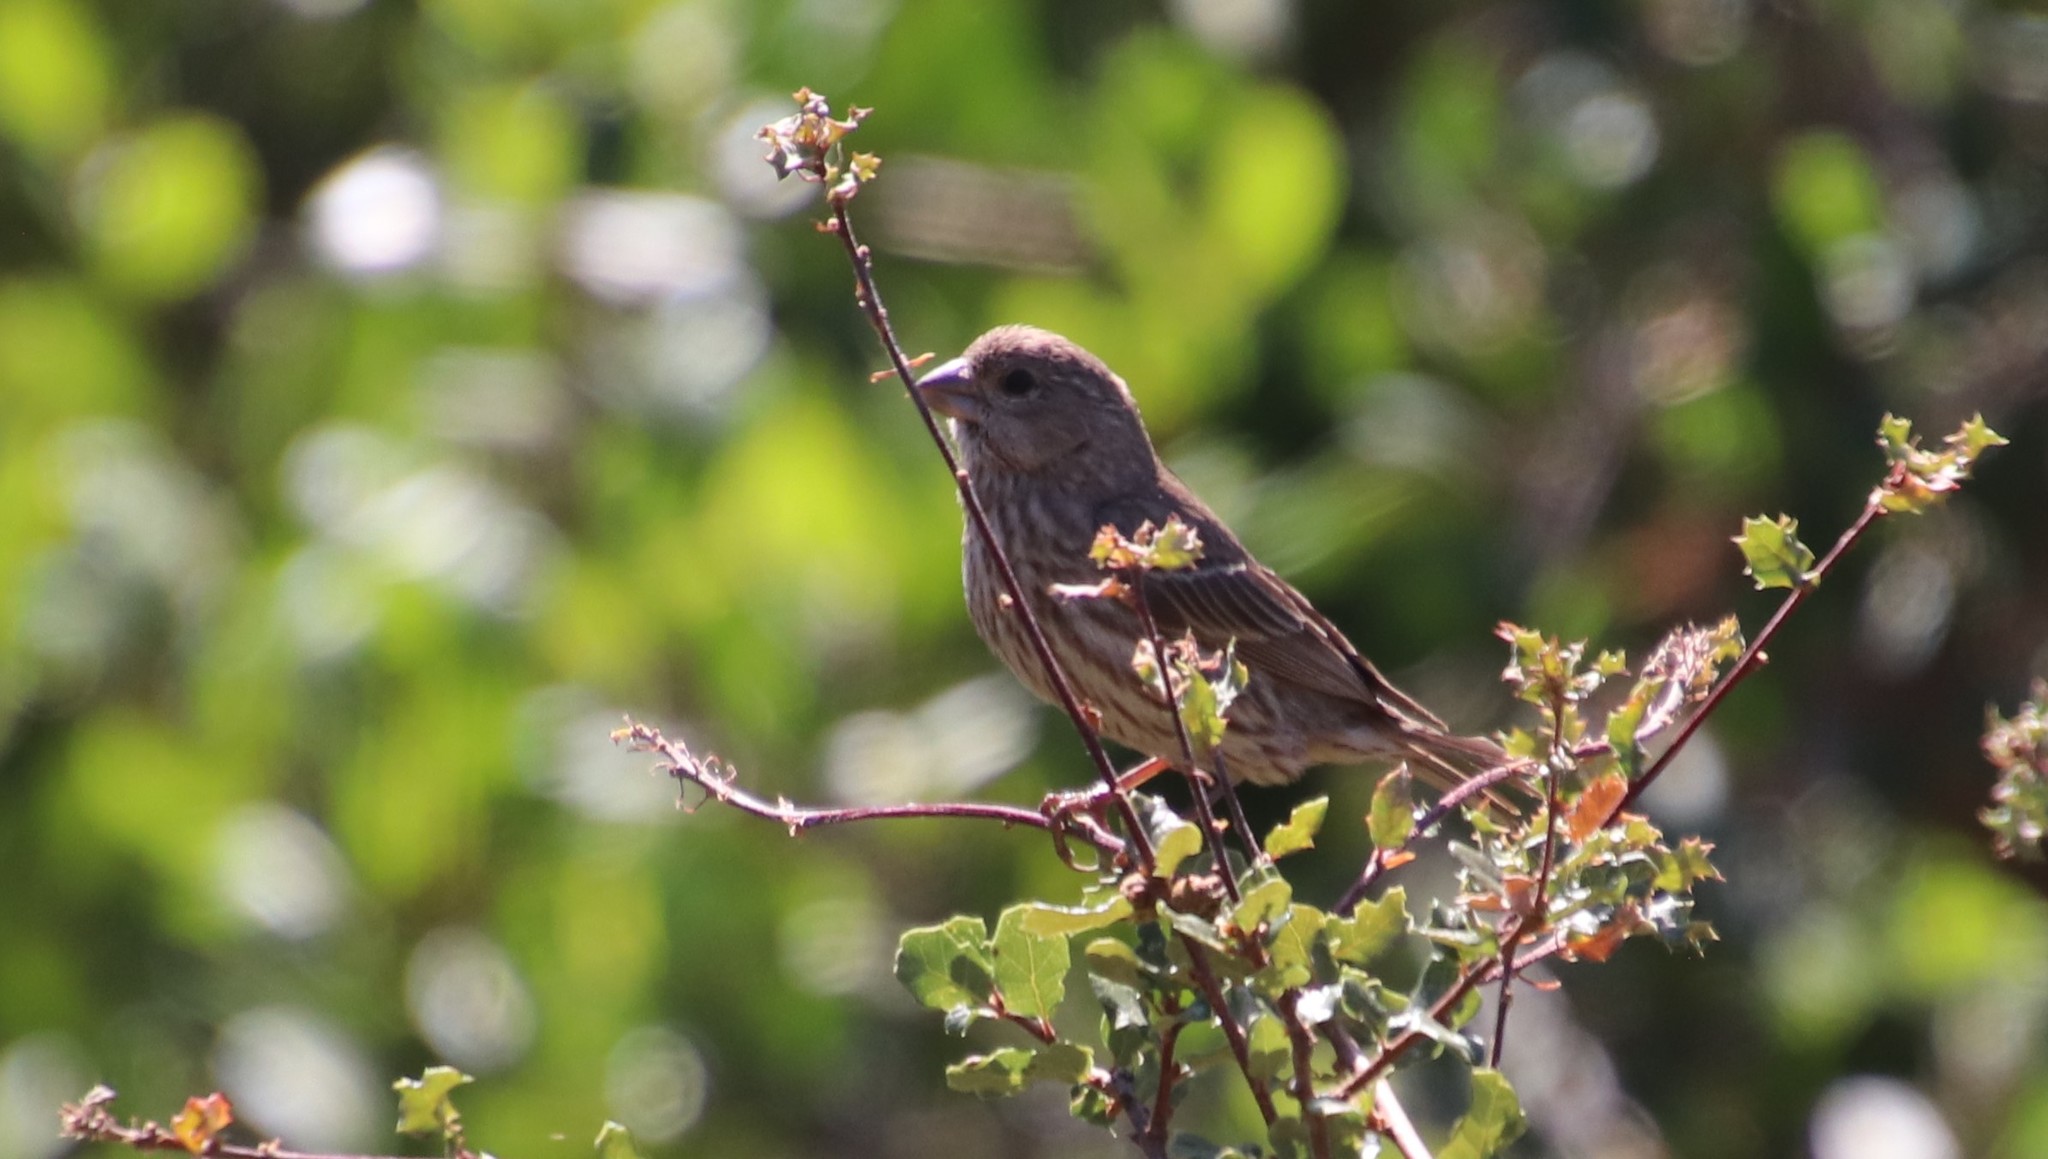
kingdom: Animalia
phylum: Chordata
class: Aves
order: Passeriformes
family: Fringillidae
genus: Haemorhous
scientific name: Haemorhous mexicanus
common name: House finch
